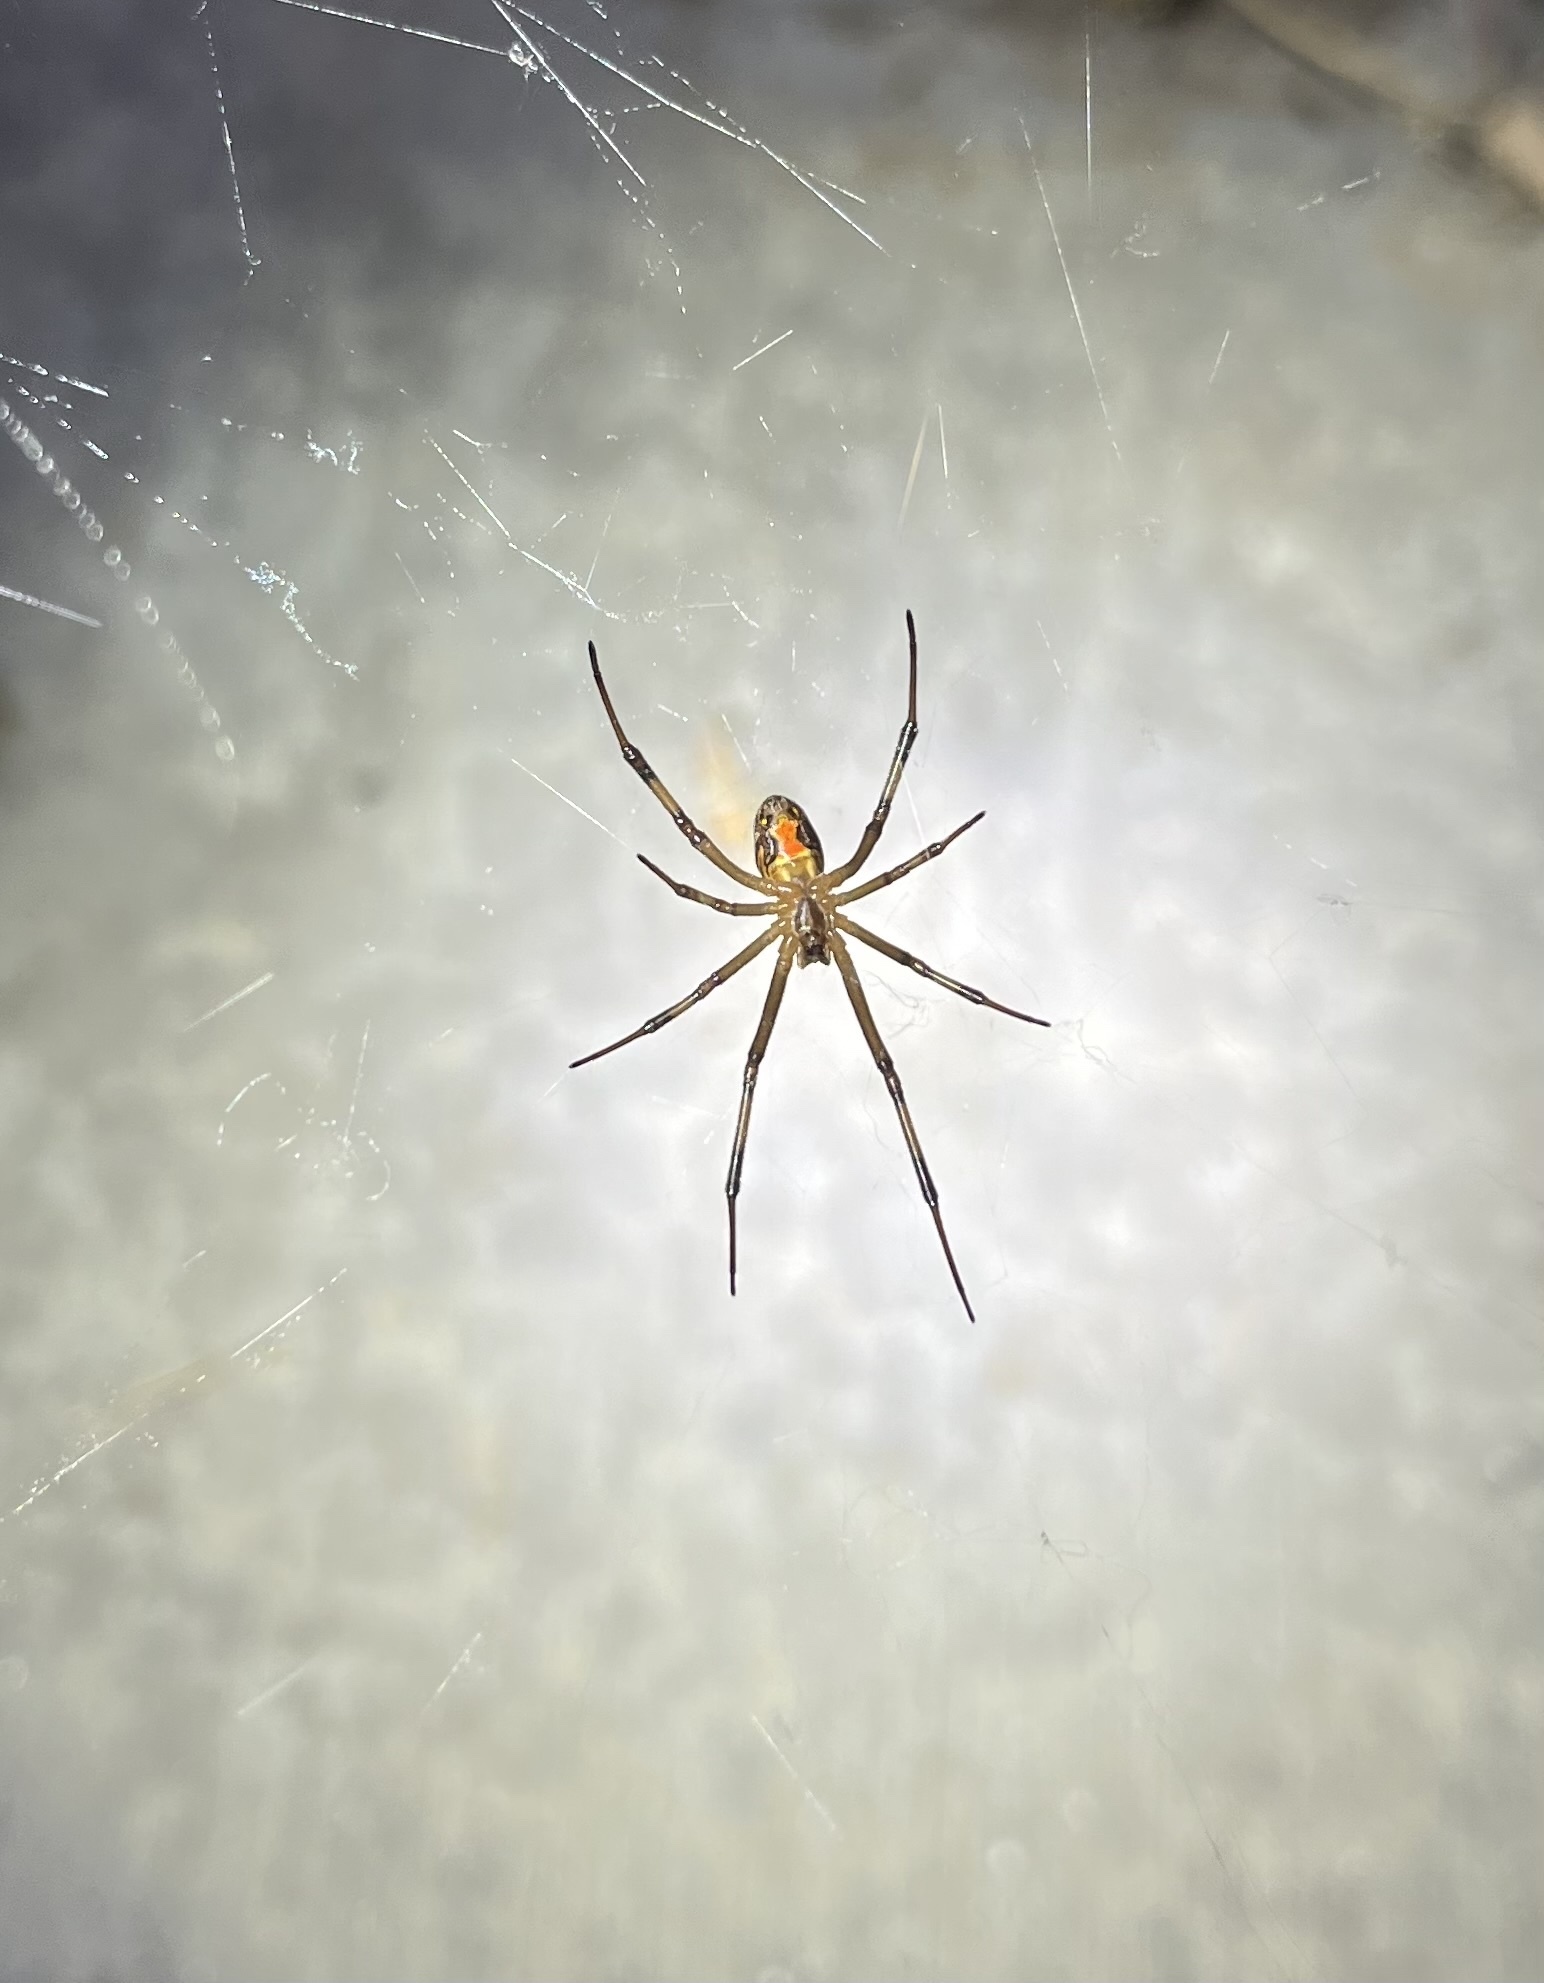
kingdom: Animalia
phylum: Arthropoda
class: Arachnida
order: Araneae
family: Theridiidae
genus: Latrodectus
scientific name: Latrodectus geometricus
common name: Brown widow spider
